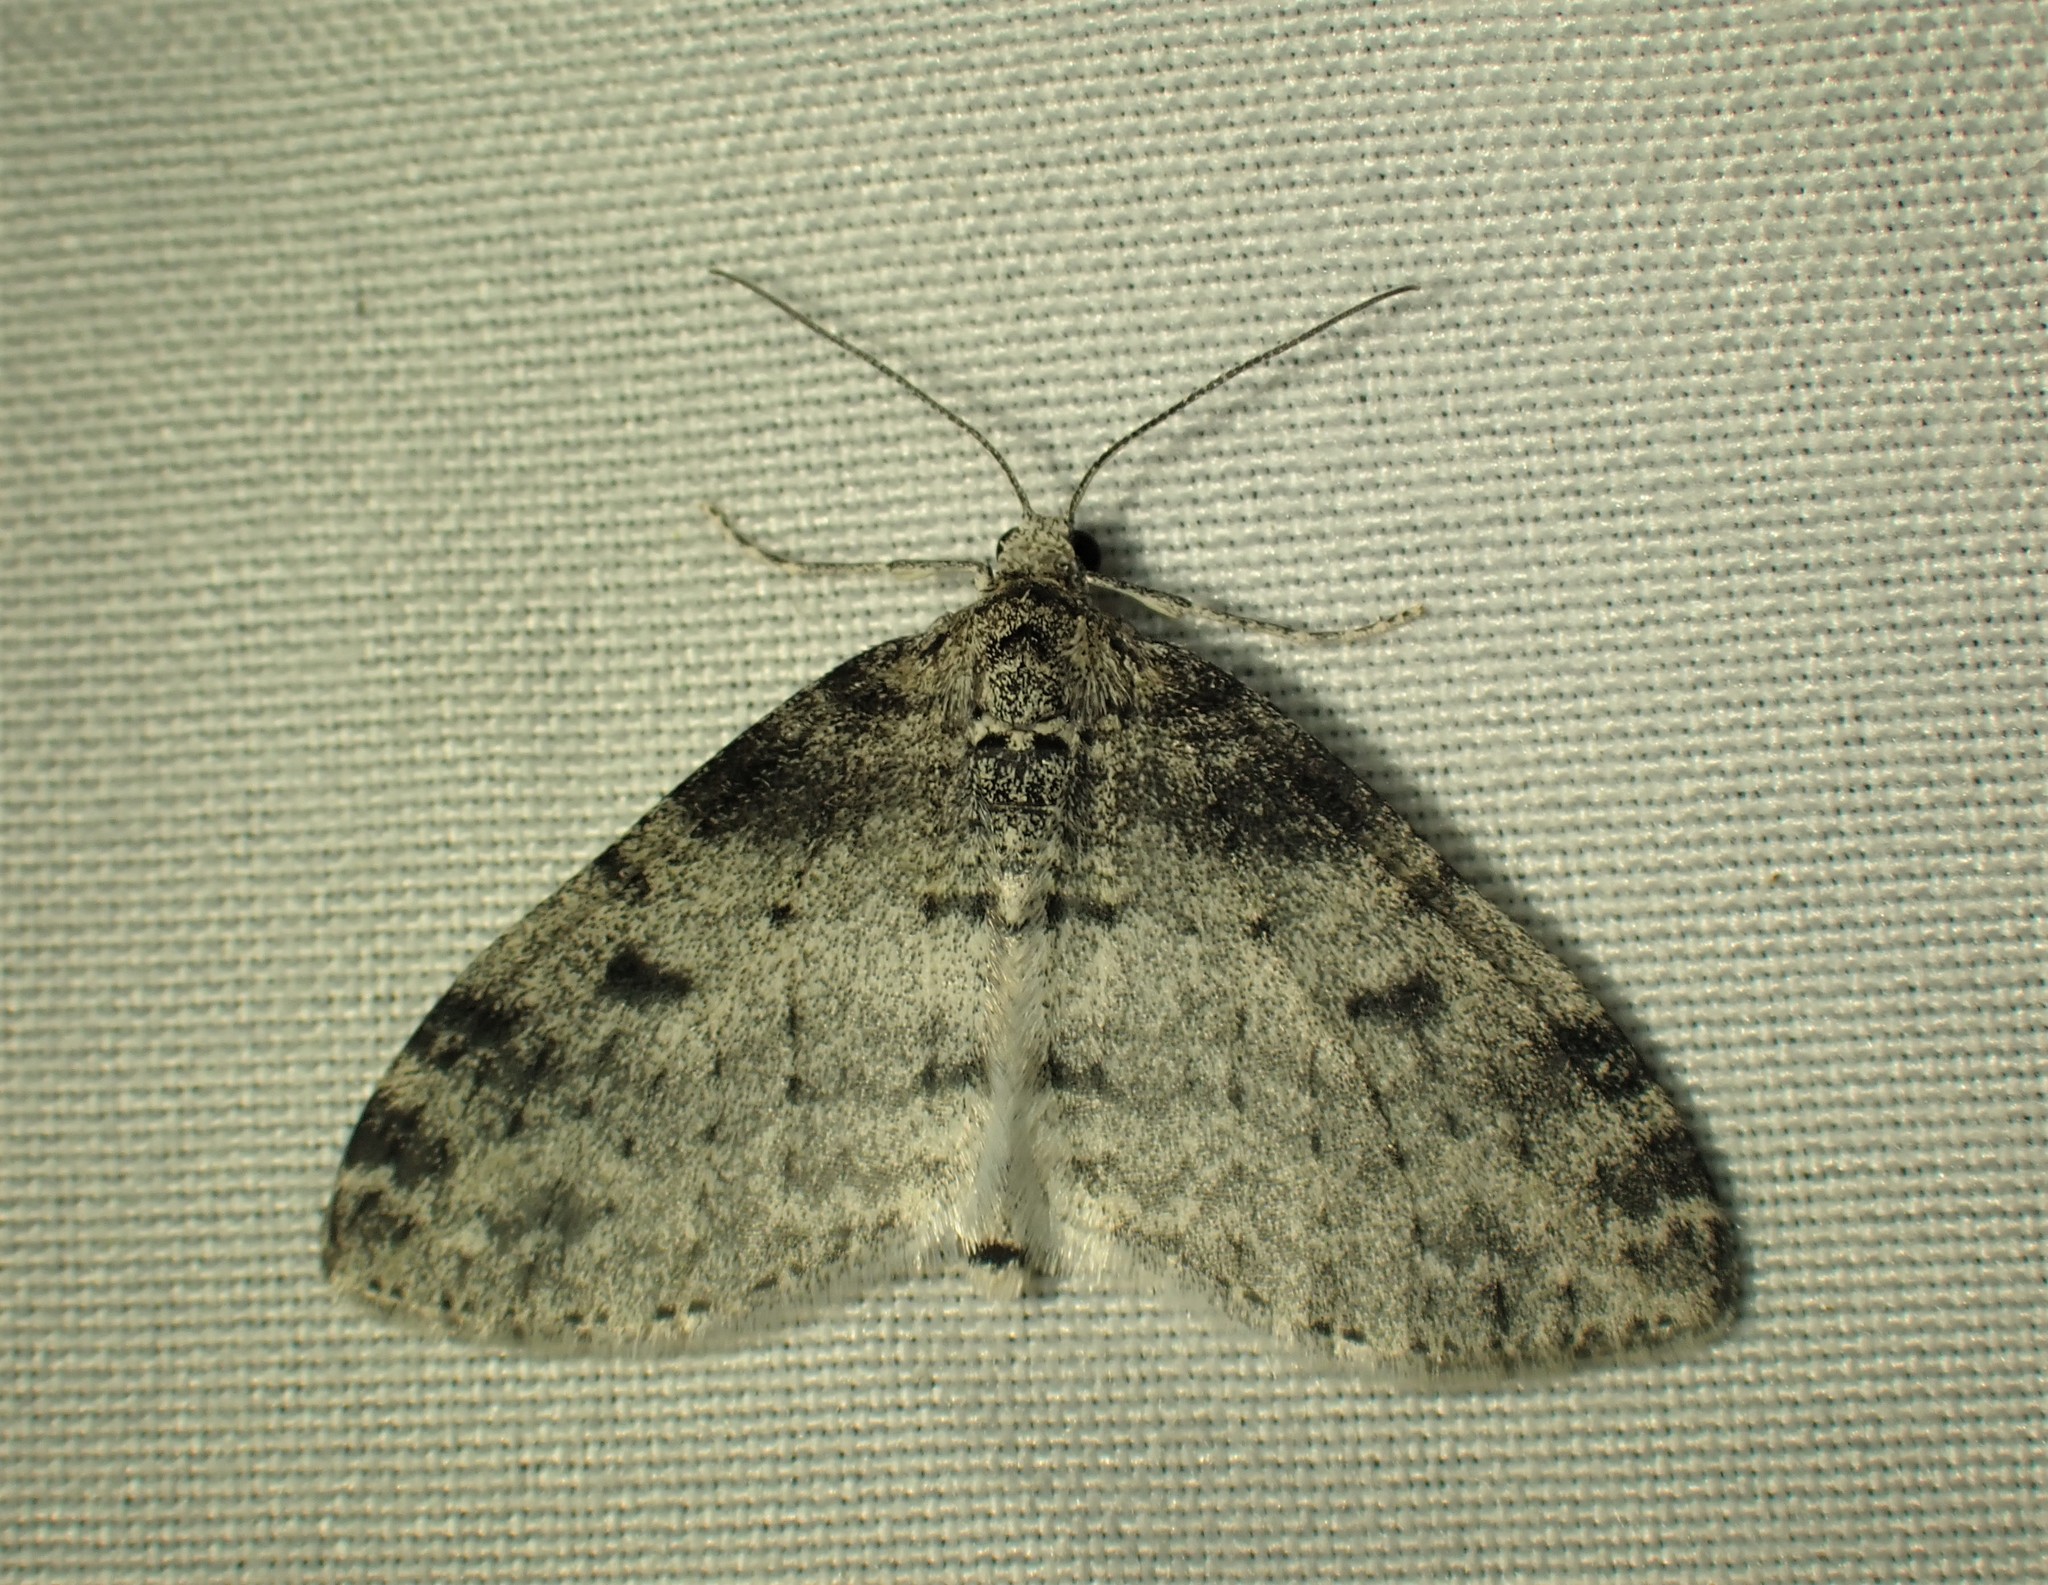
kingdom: Animalia
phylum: Arthropoda
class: Insecta
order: Lepidoptera
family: Geometridae
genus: Lobophora
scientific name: Lobophora nivigerata
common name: Powdered bigwing
